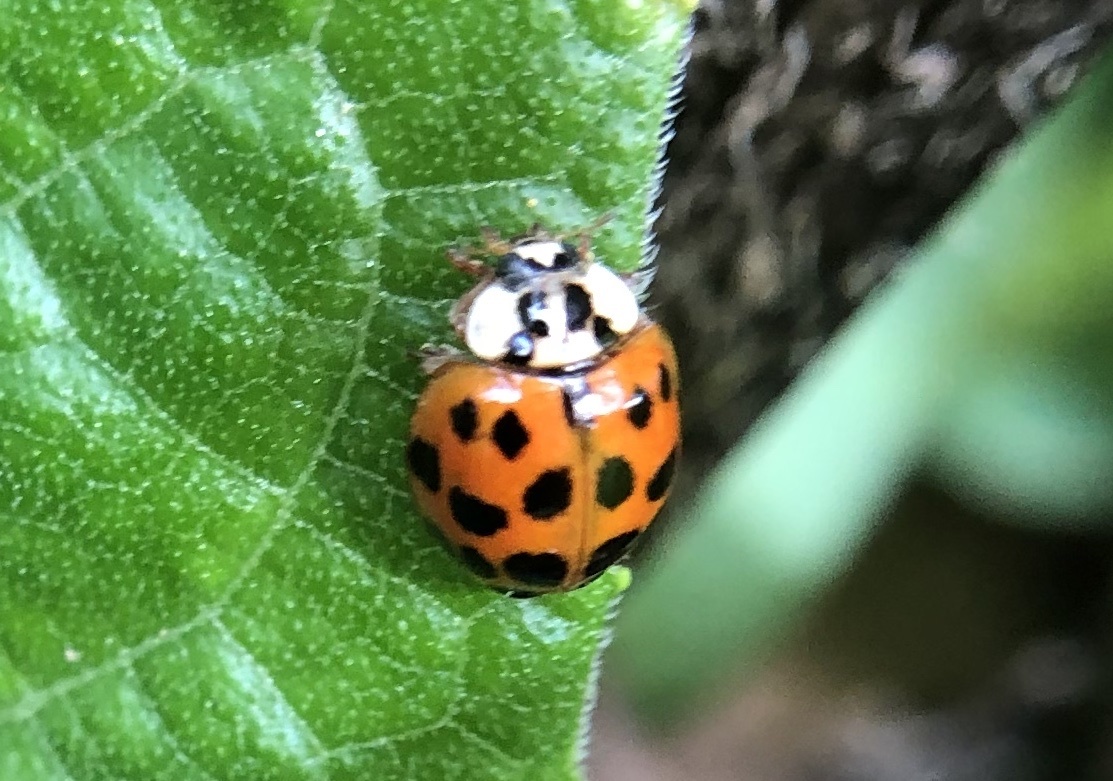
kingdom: Animalia
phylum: Arthropoda
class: Insecta
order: Coleoptera
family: Coccinellidae
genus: Harmonia
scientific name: Harmonia axyridis
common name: Harlequin ladybird
